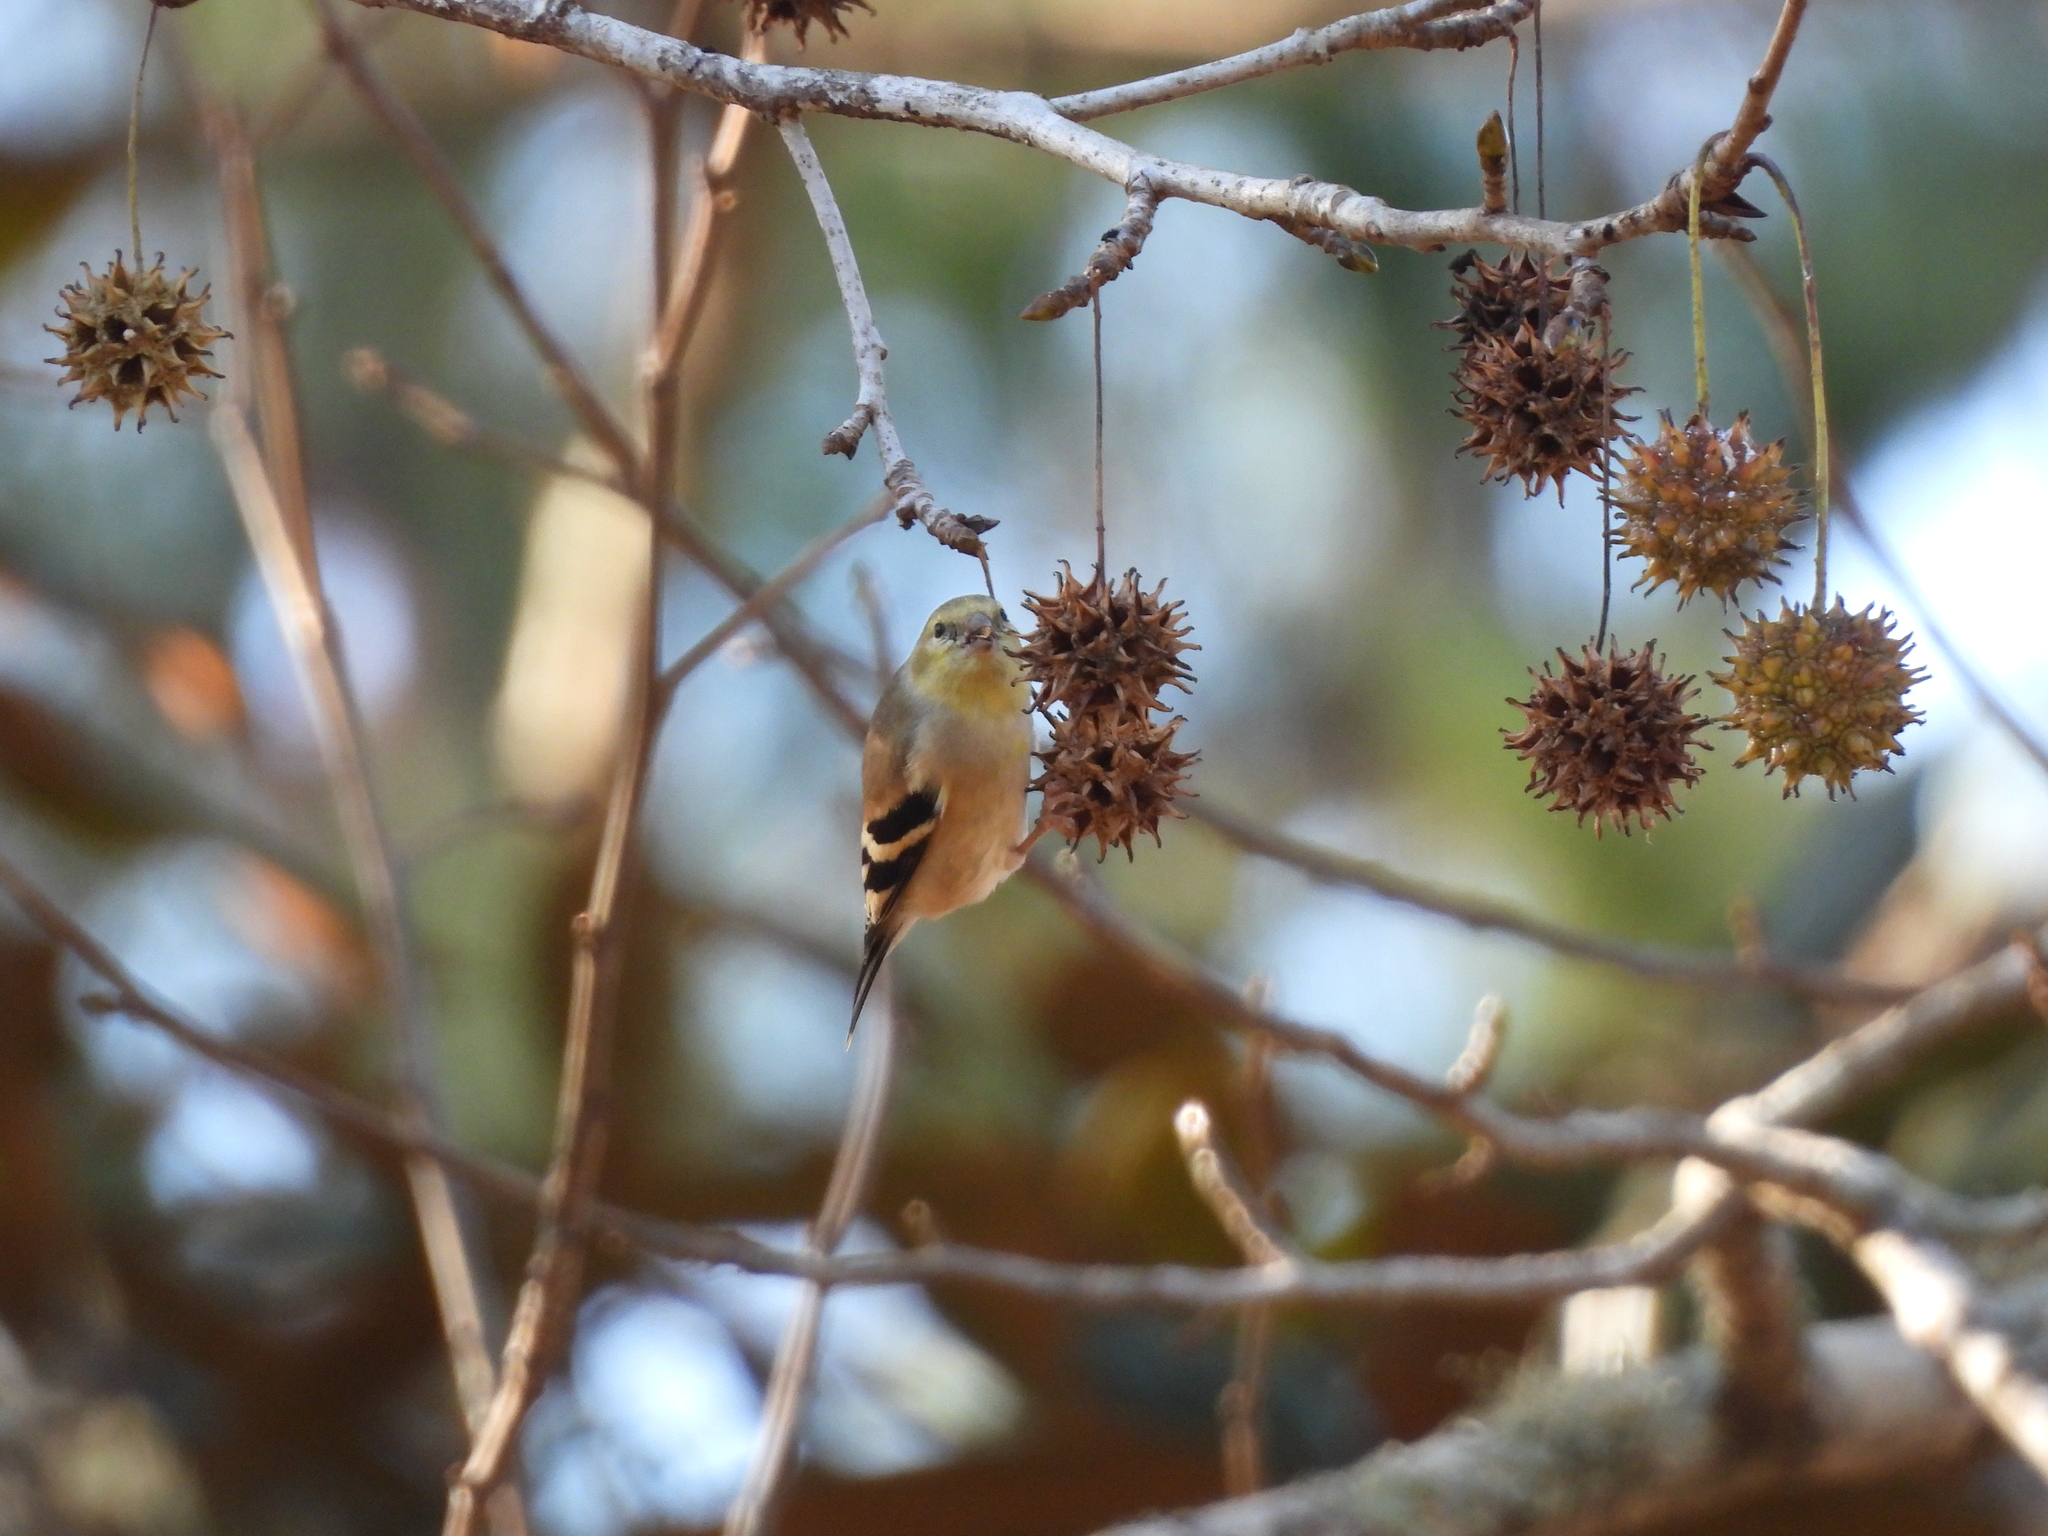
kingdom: Animalia
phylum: Chordata
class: Aves
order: Passeriformes
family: Fringillidae
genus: Spinus
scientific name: Spinus tristis
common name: American goldfinch
